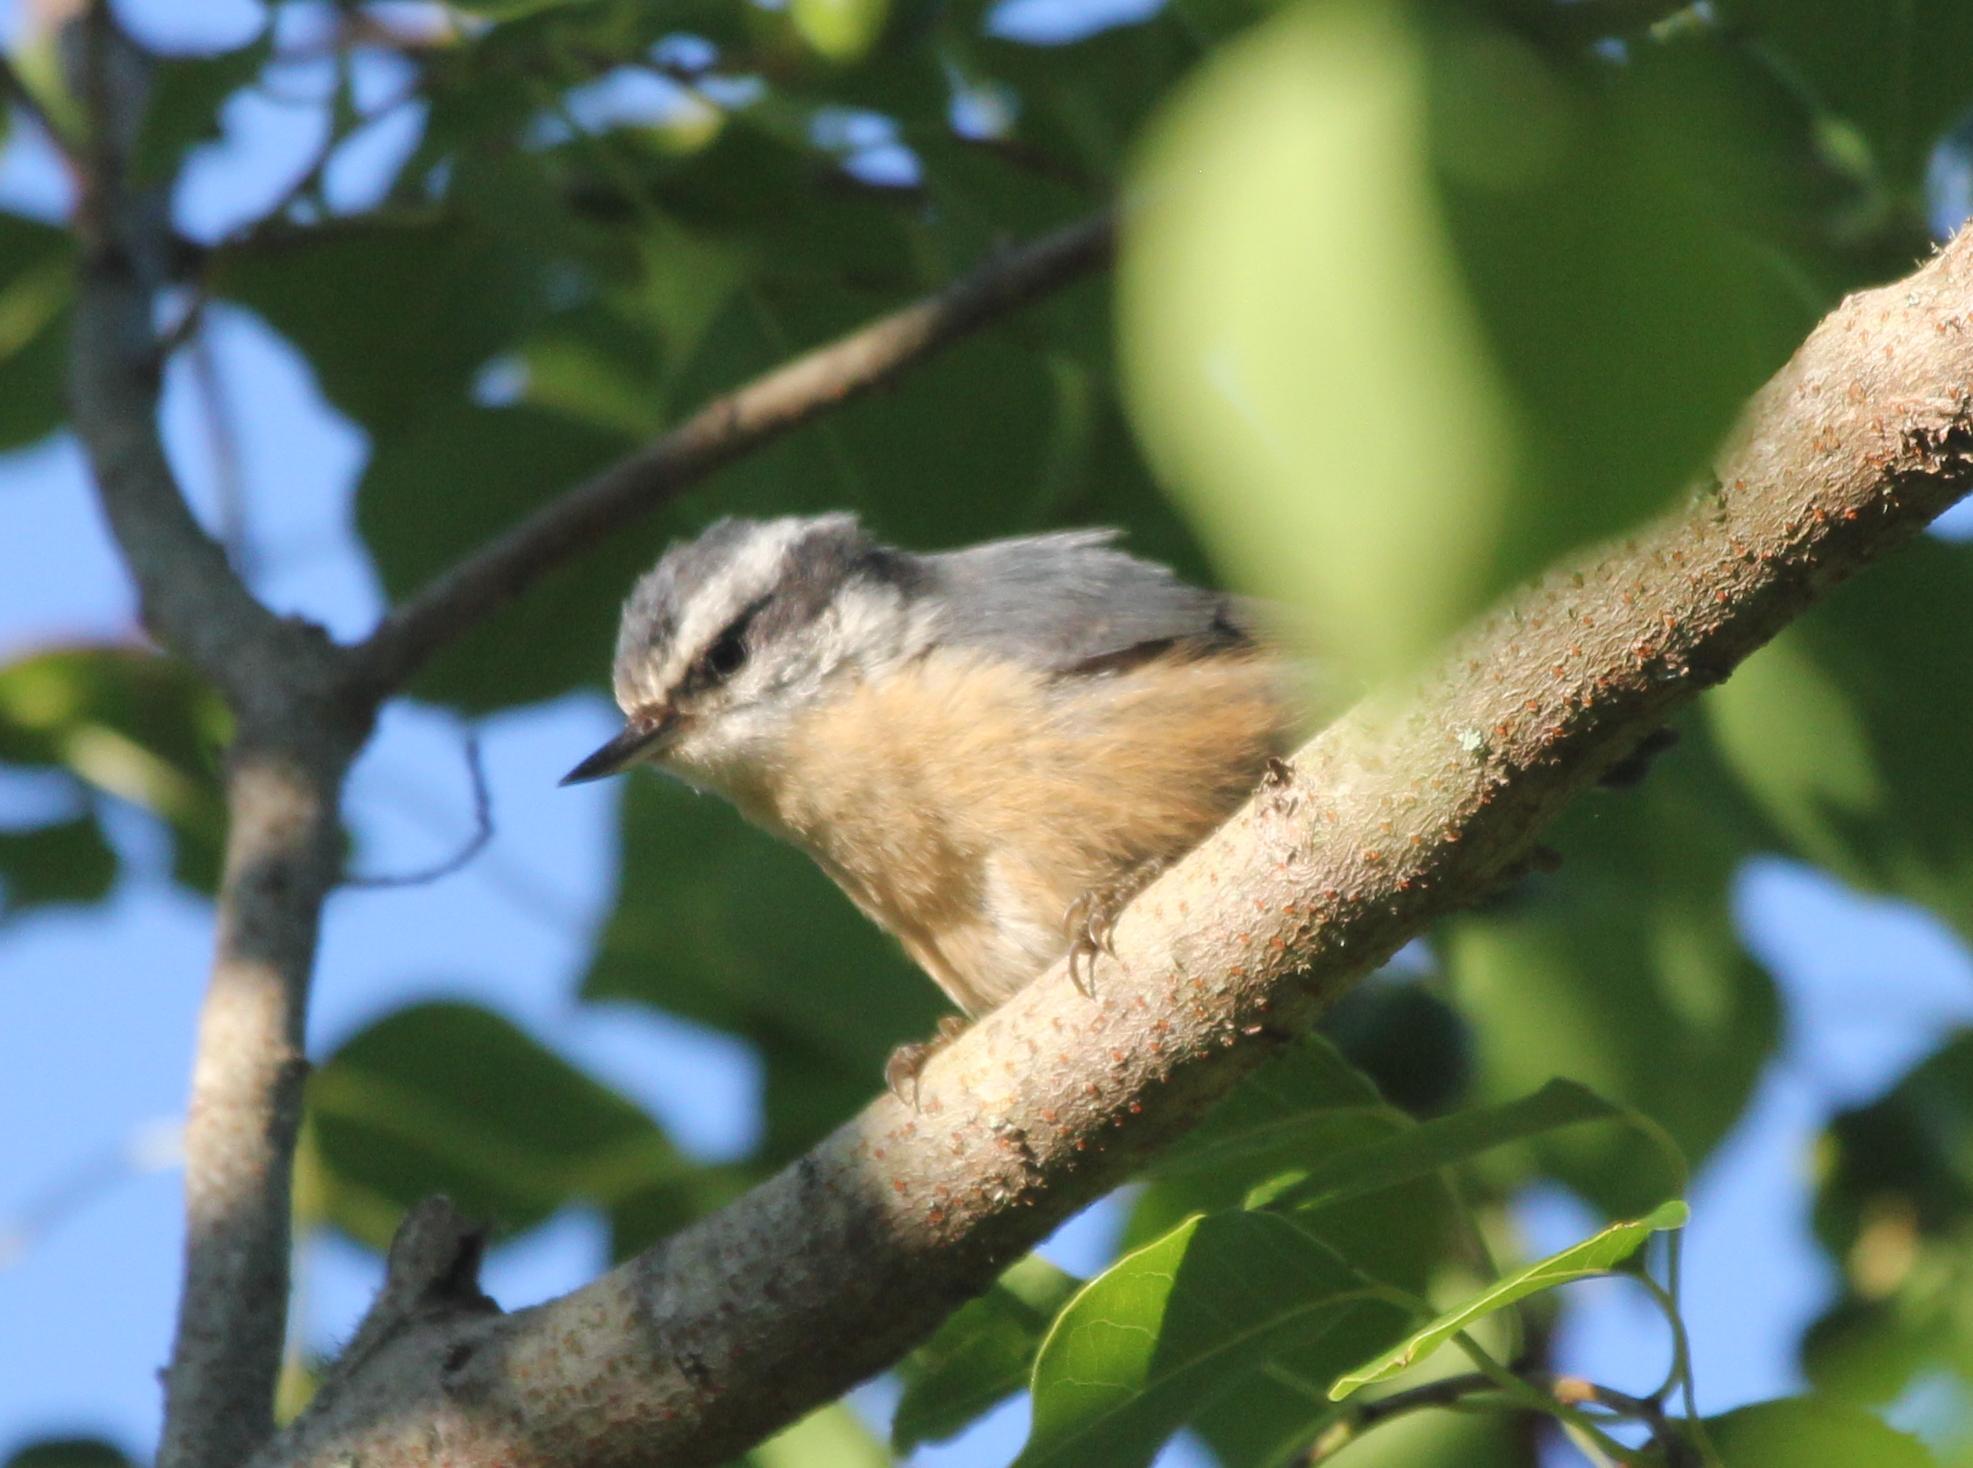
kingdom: Animalia
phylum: Chordata
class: Aves
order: Passeriformes
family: Sittidae
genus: Sitta
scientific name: Sitta canadensis
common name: Red-breasted nuthatch
